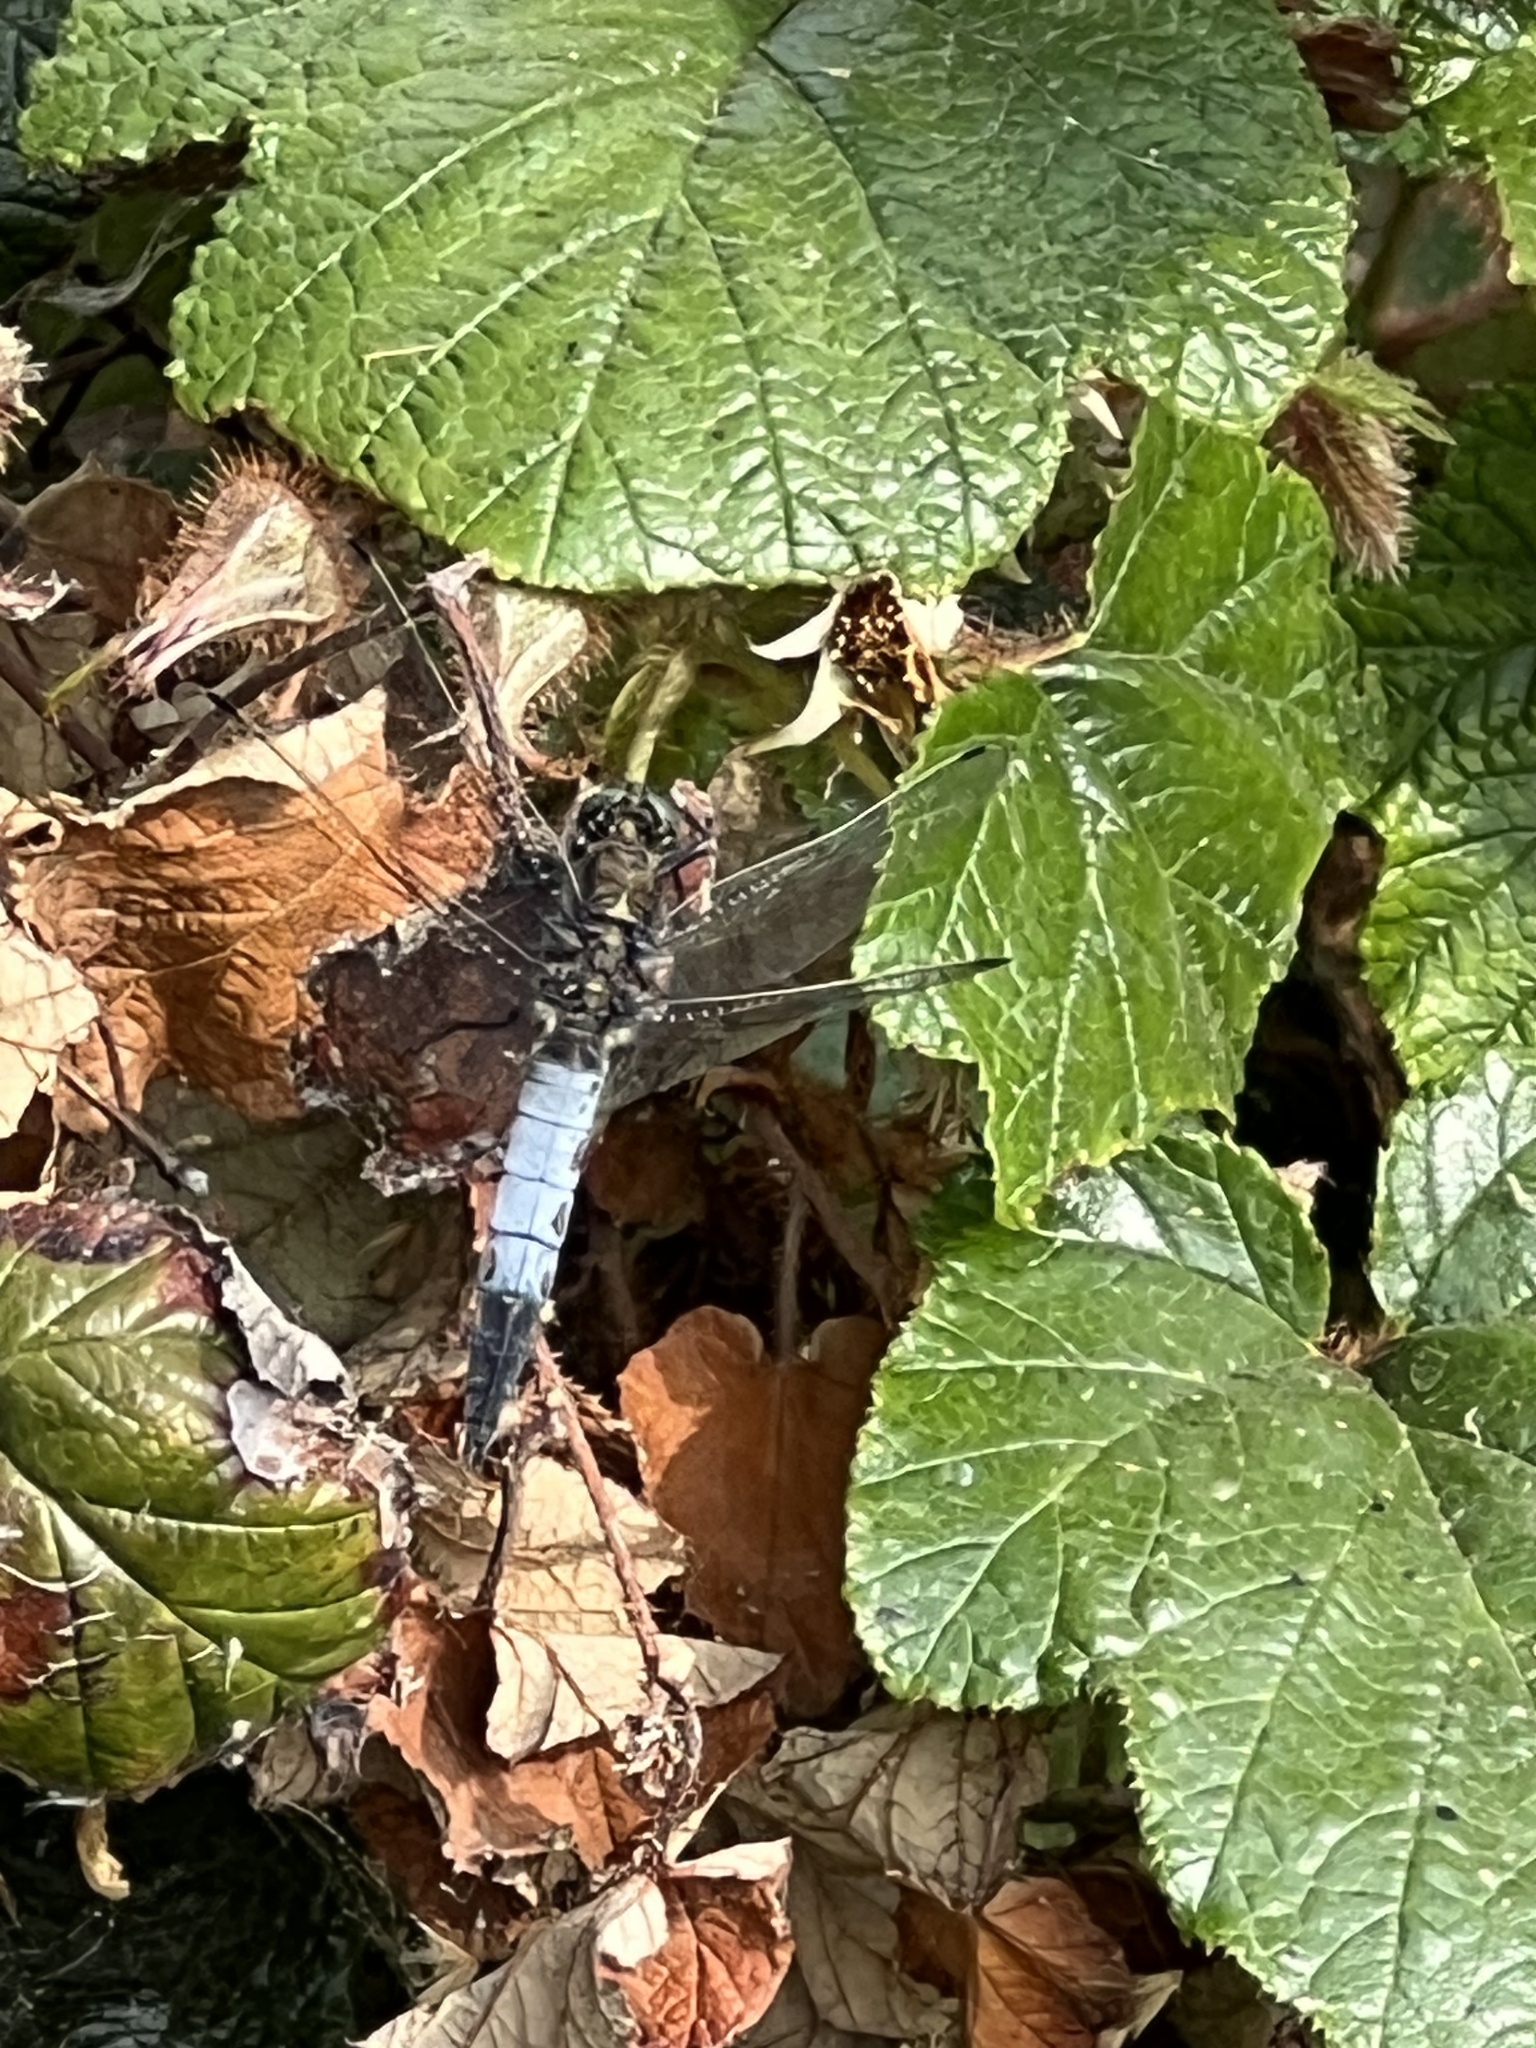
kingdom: Animalia
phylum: Arthropoda
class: Insecta
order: Odonata
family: Libellulidae
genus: Orthetrum
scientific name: Orthetrum cancellatum
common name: Black-tailed skimmer
